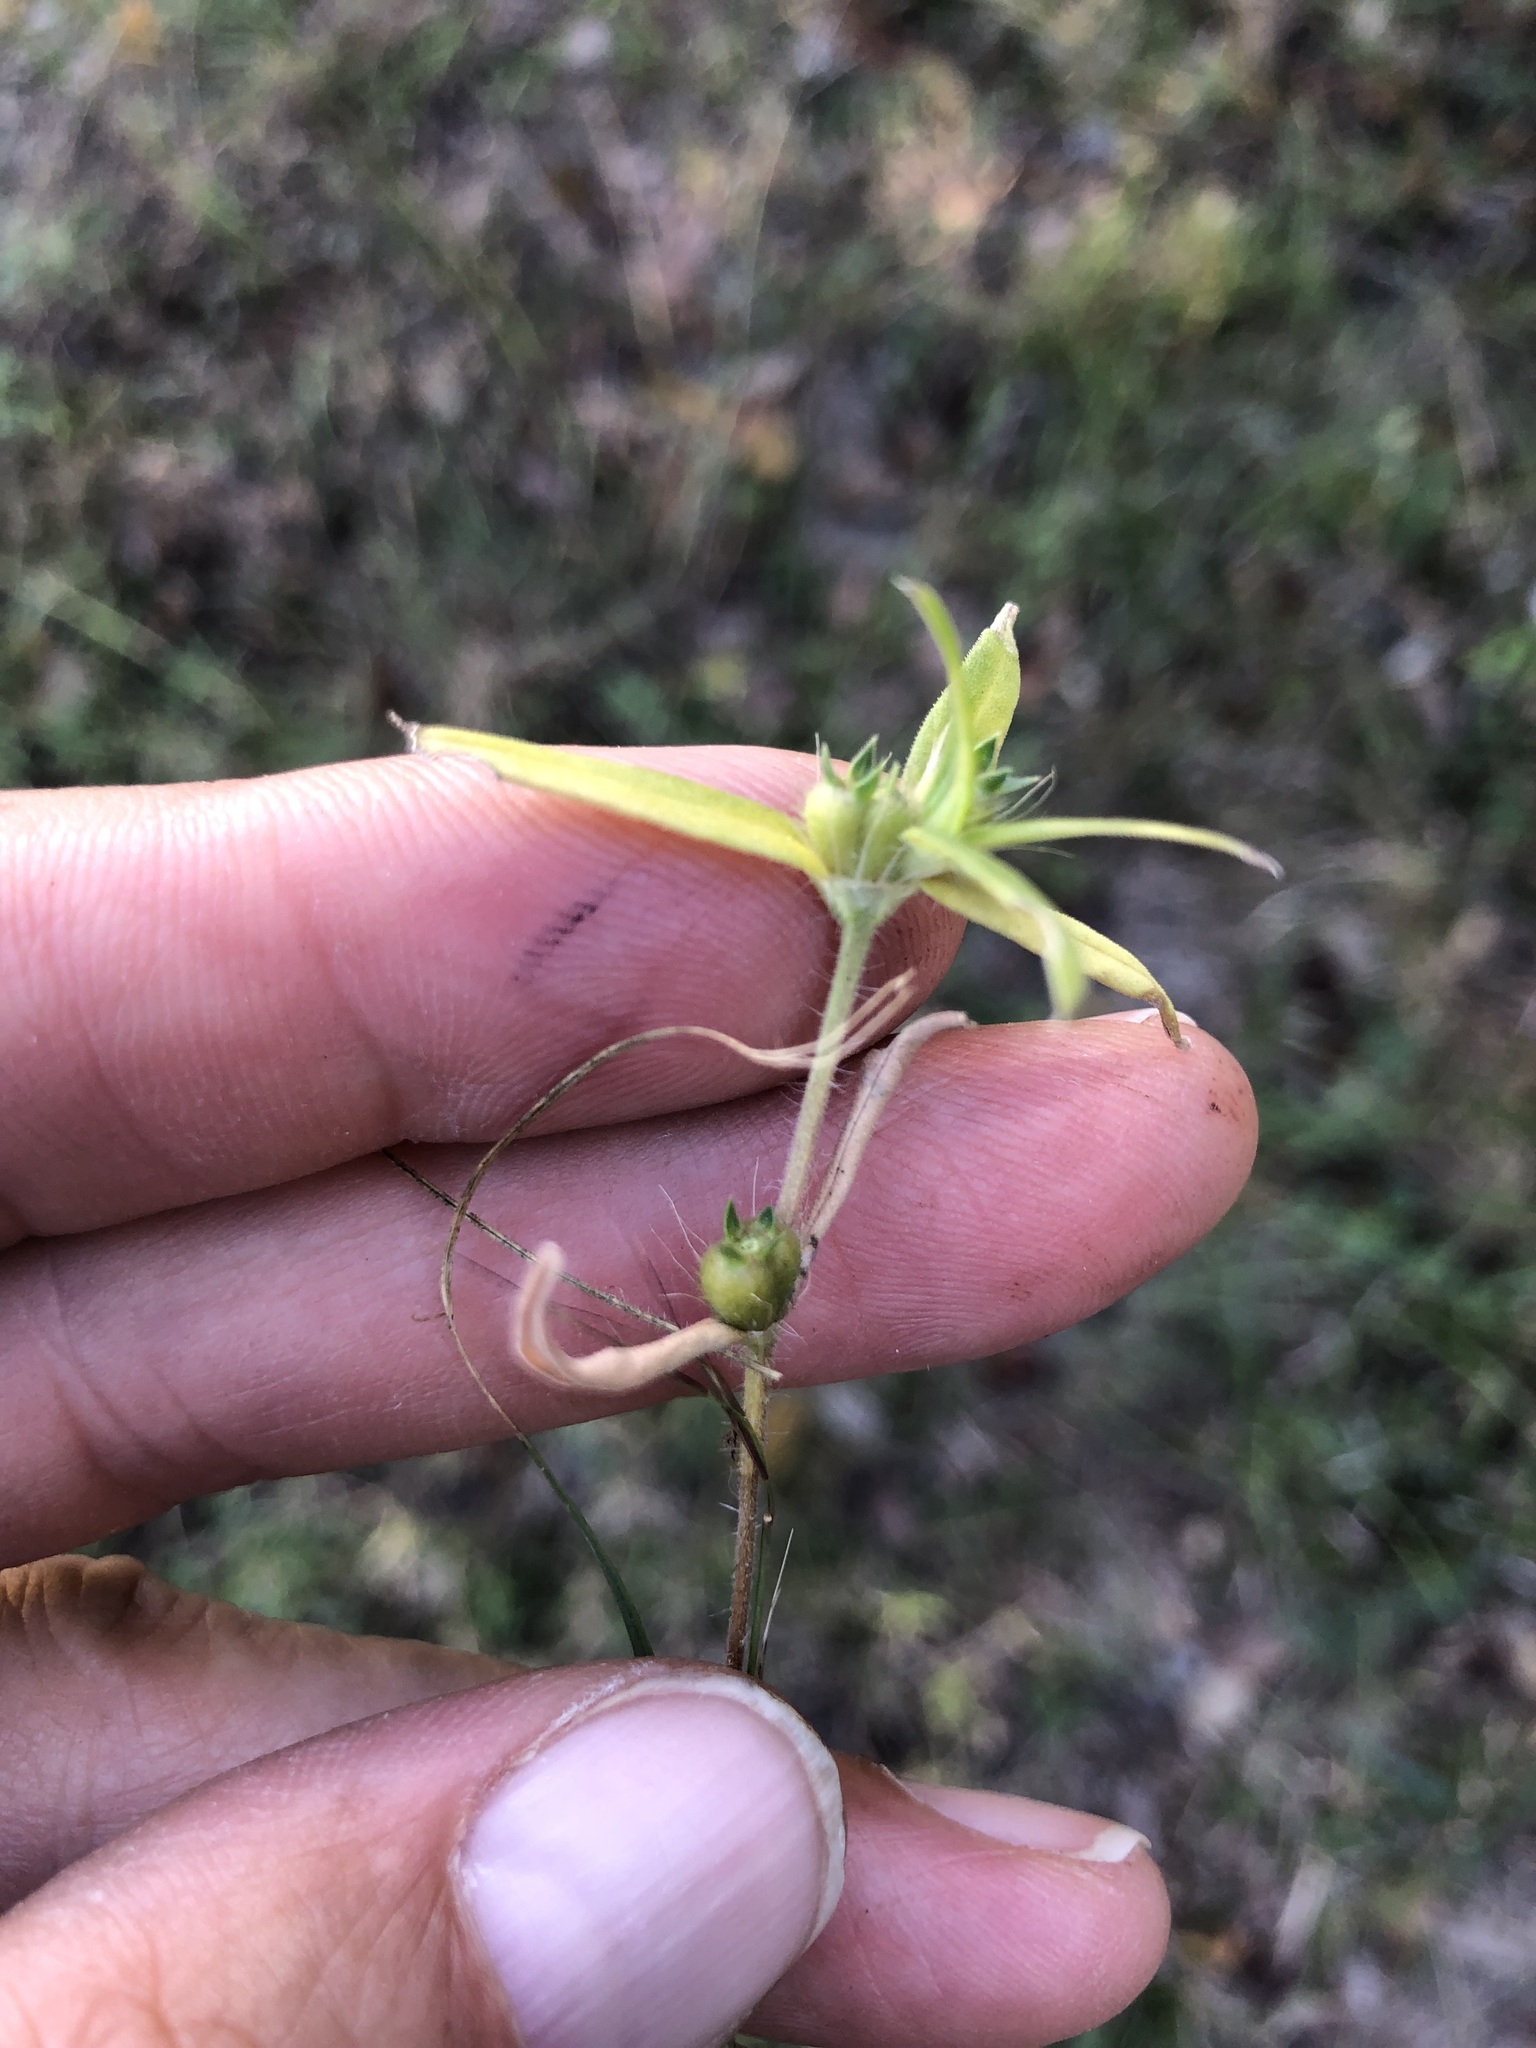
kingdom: Plantae
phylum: Tracheophyta
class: Magnoliopsida
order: Gentianales
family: Rubiaceae
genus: Hexasepalum
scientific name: Hexasepalum teres
